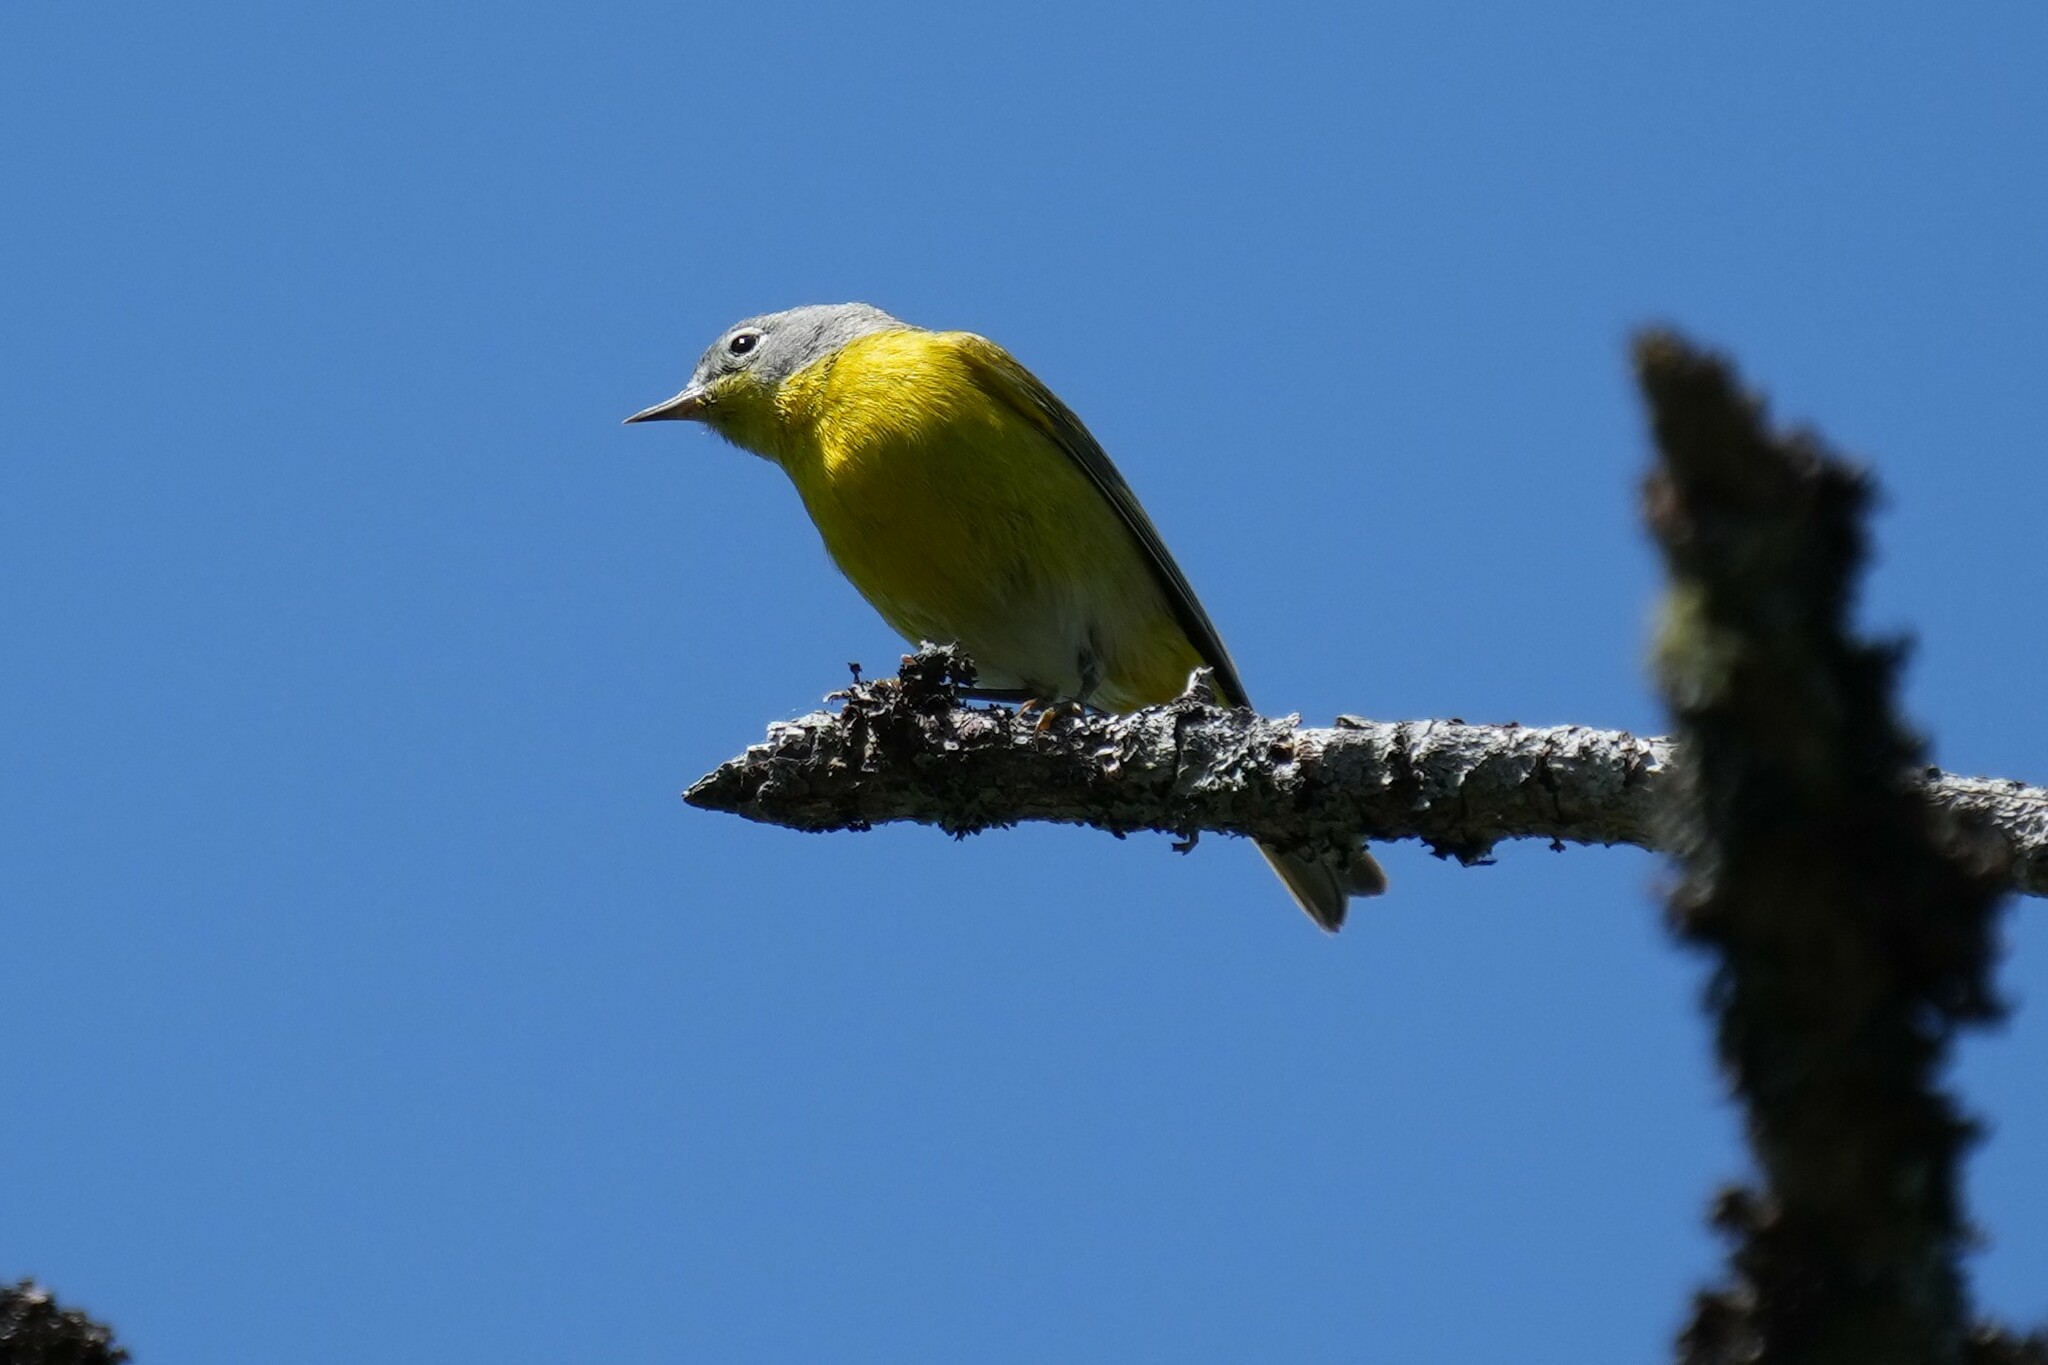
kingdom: Animalia
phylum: Chordata
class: Aves
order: Passeriformes
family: Parulidae
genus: Leiothlypis
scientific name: Leiothlypis ruficapilla
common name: Nashville warbler
